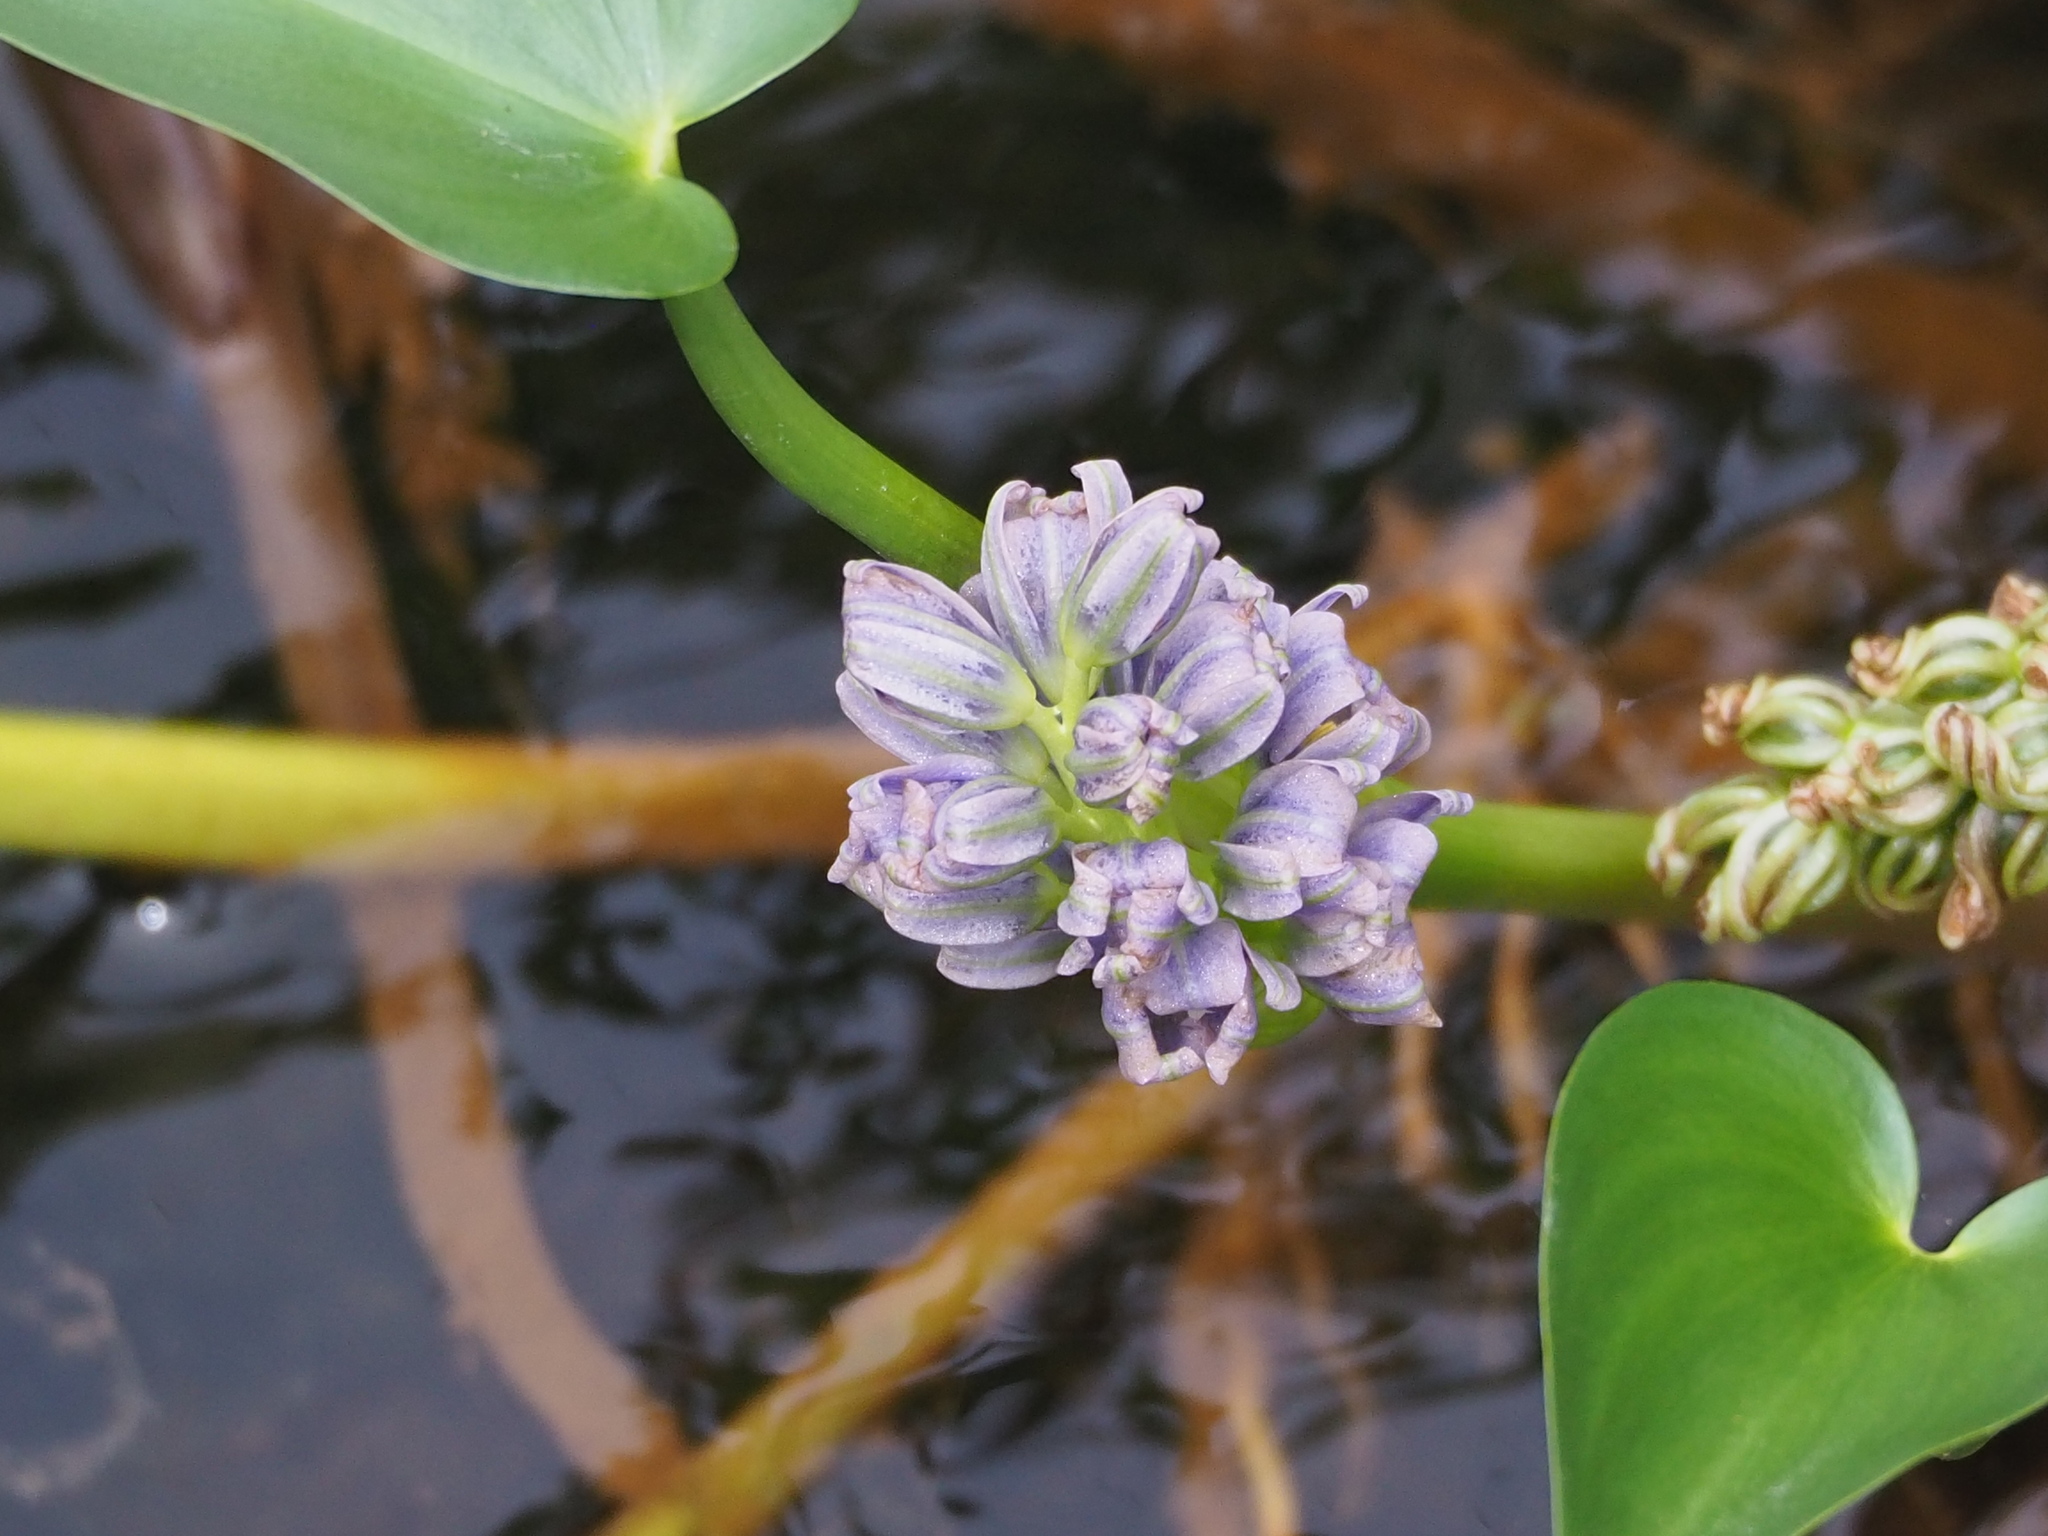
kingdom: Plantae
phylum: Tracheophyta
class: Liliopsida
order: Commelinales
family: Pontederiaceae
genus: Pontederia
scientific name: Pontederia vaginalis
